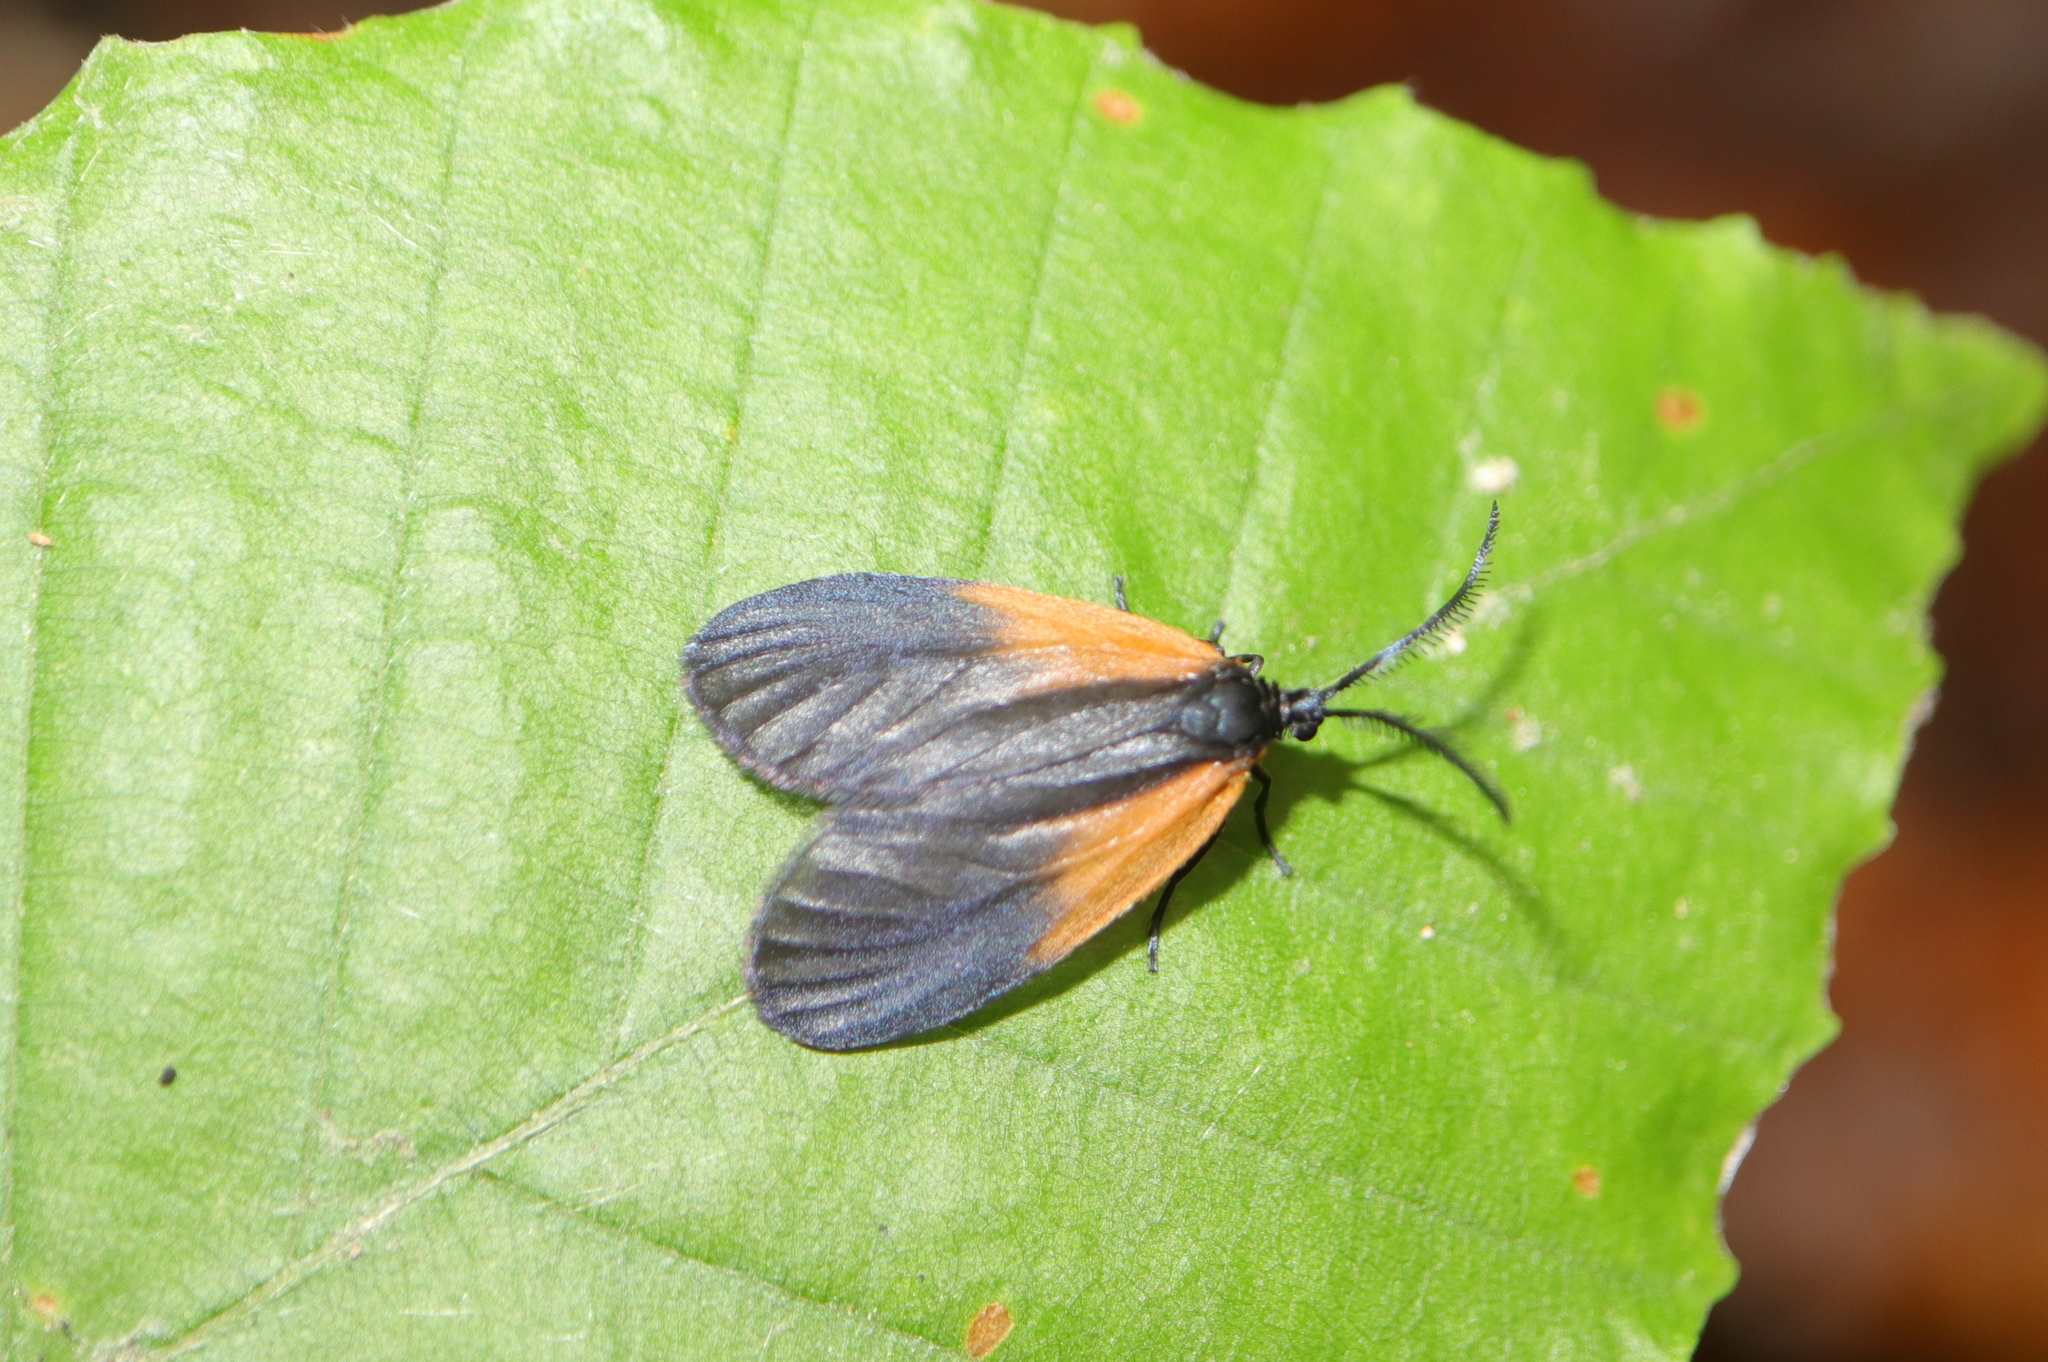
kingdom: Animalia
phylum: Arthropoda
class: Insecta
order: Lepidoptera
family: Zygaenidae
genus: Malthaca
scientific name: Malthaca dimidiata
